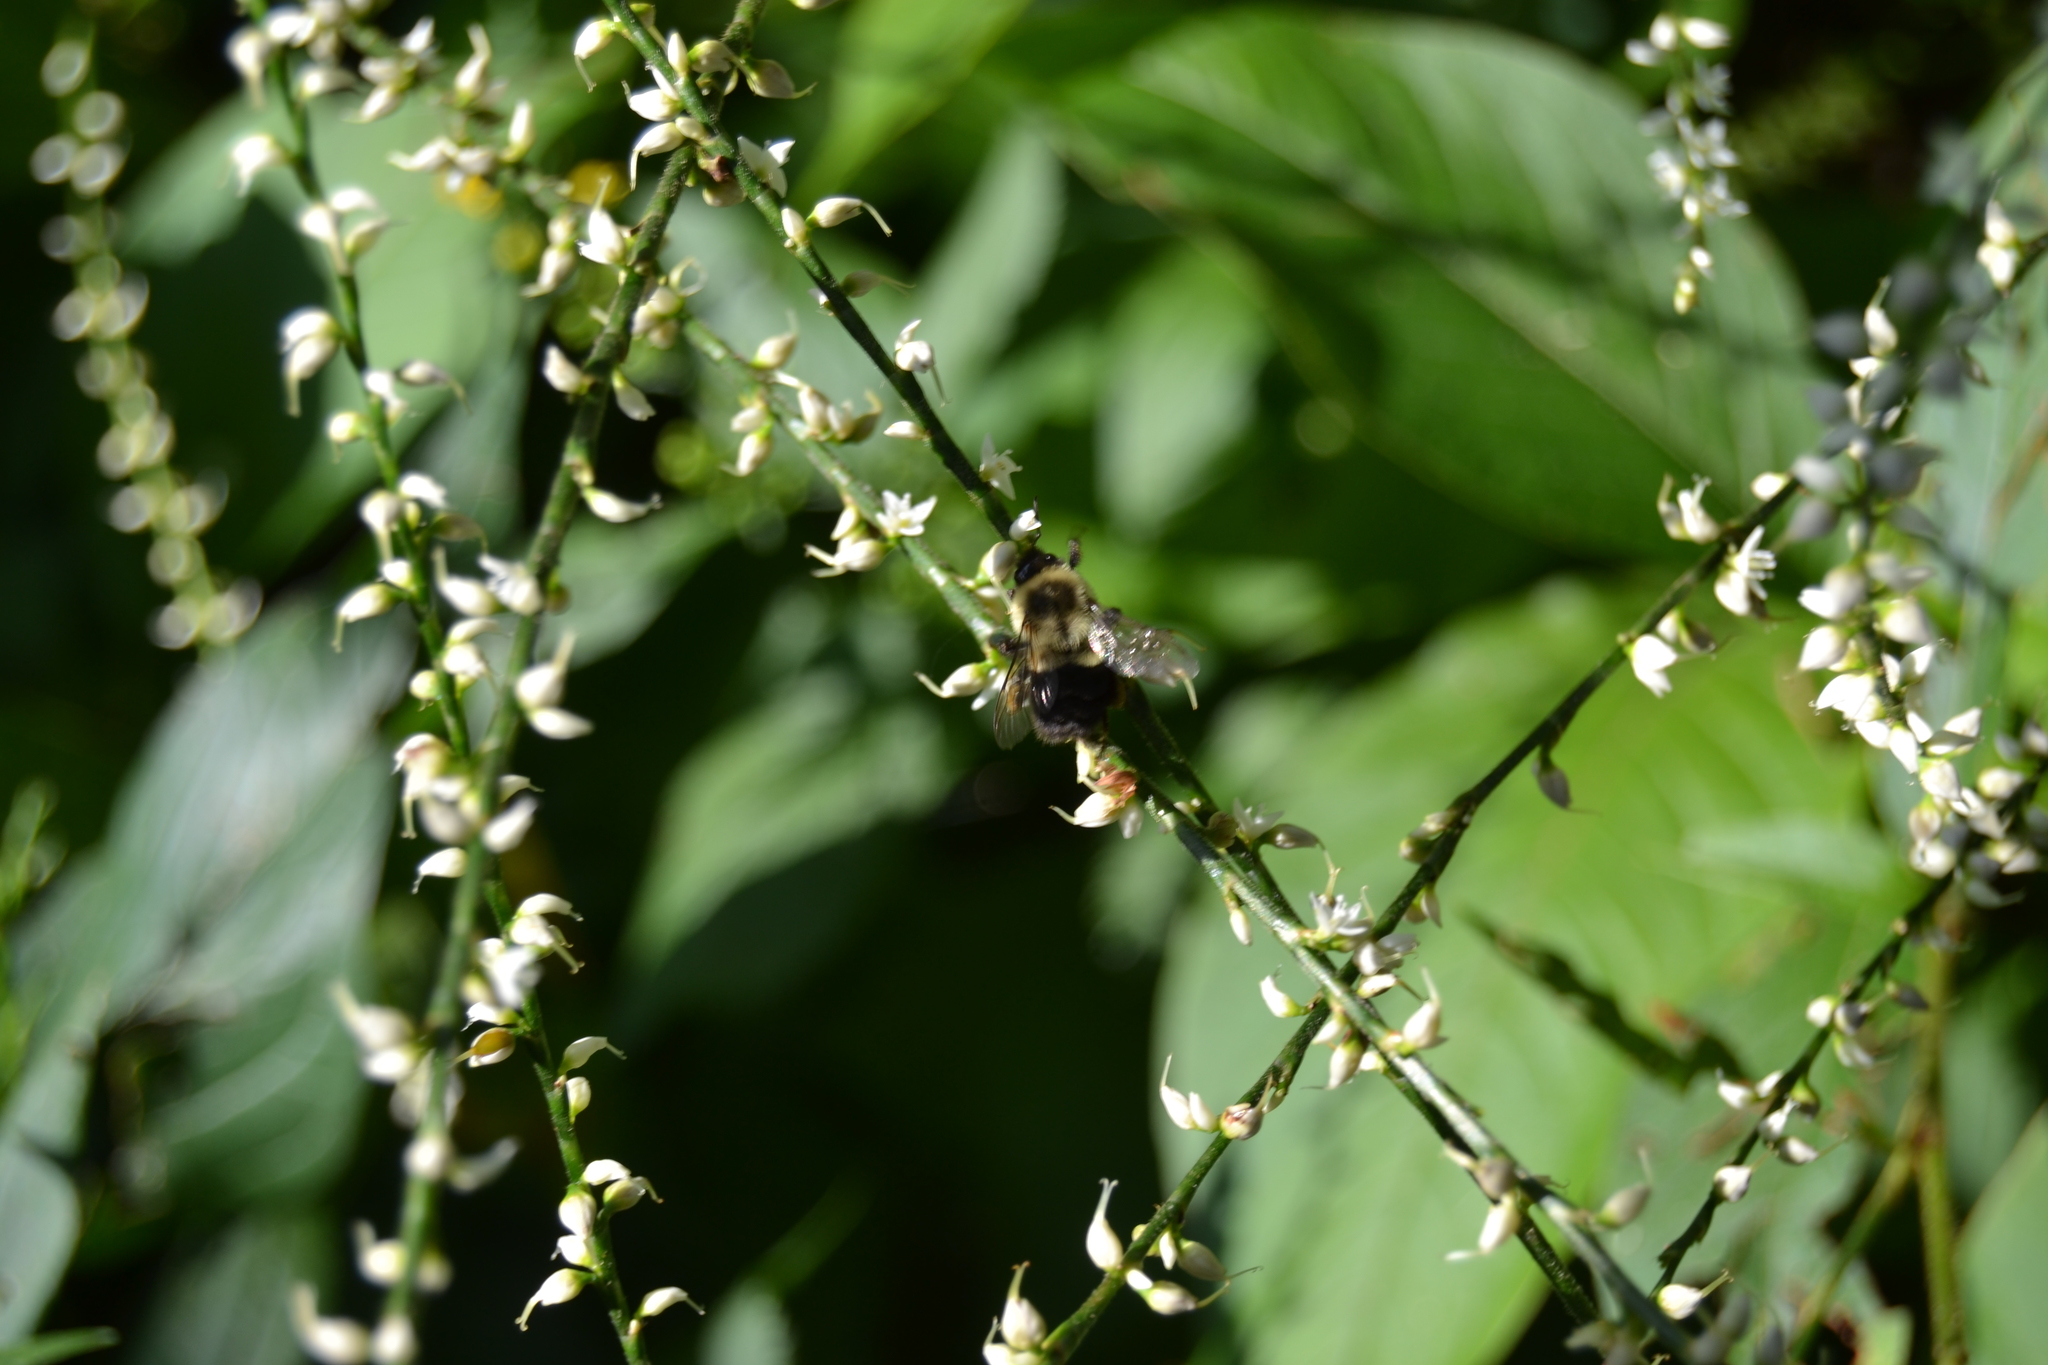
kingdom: Animalia
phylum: Arthropoda
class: Insecta
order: Hymenoptera
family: Apidae
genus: Bombus
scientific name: Bombus impatiens
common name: Common eastern bumble bee
